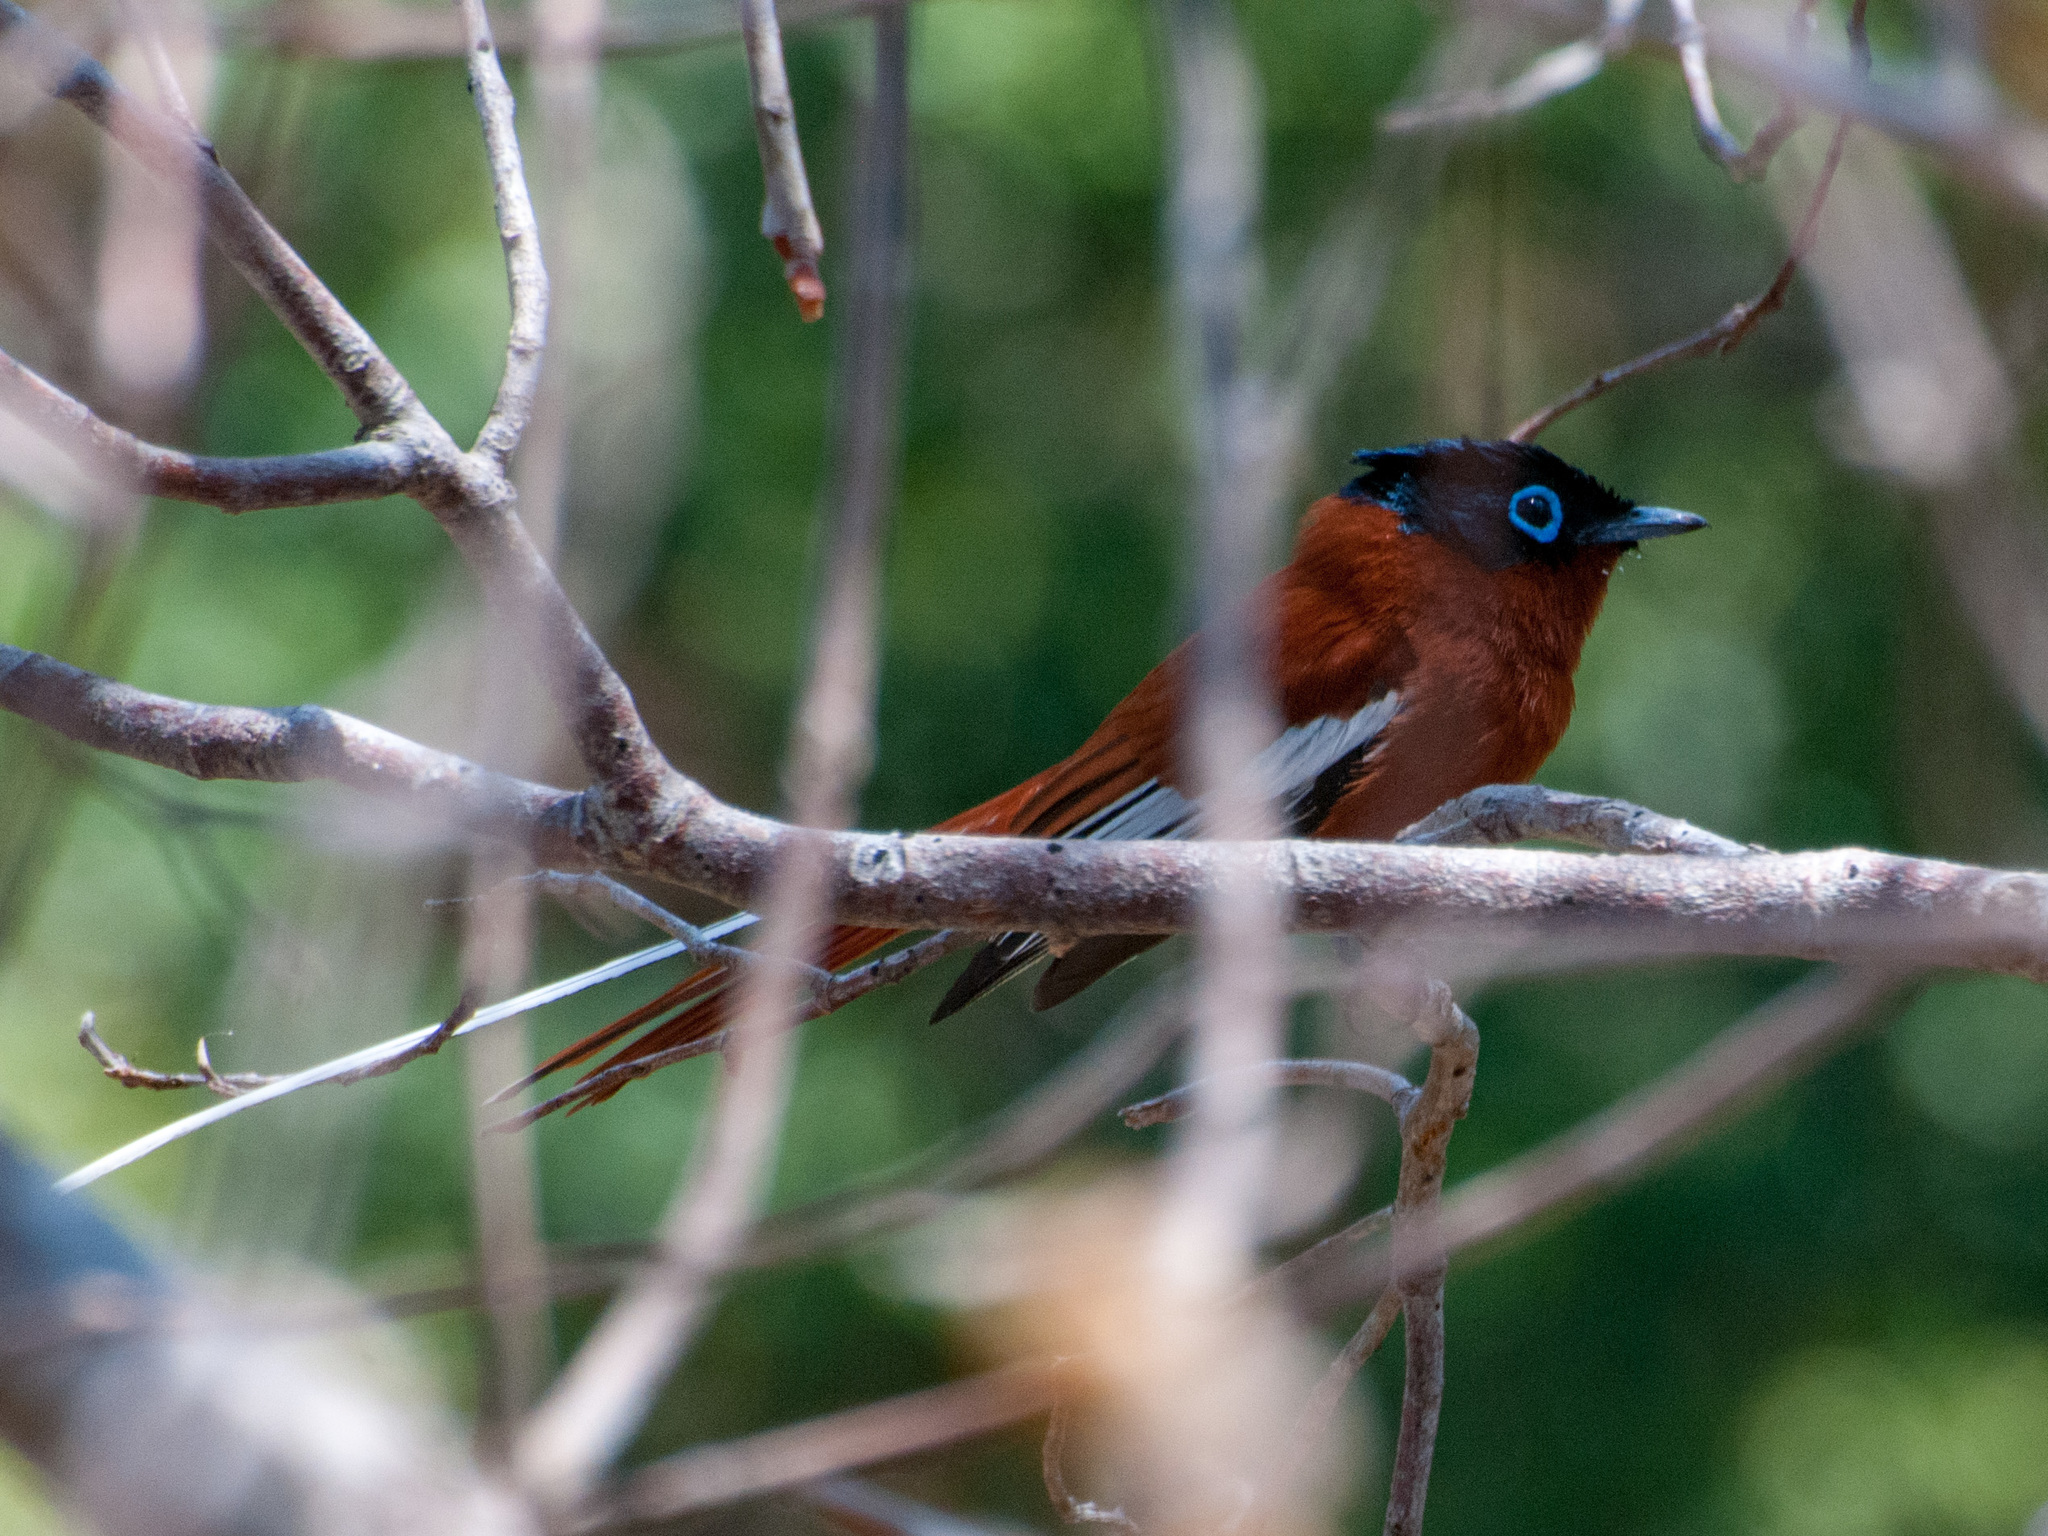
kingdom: Animalia
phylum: Chordata
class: Aves
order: Passeriformes
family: Monarchidae
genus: Terpsiphone
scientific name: Terpsiphone mutata
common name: Malagasy paradise flycatcher
